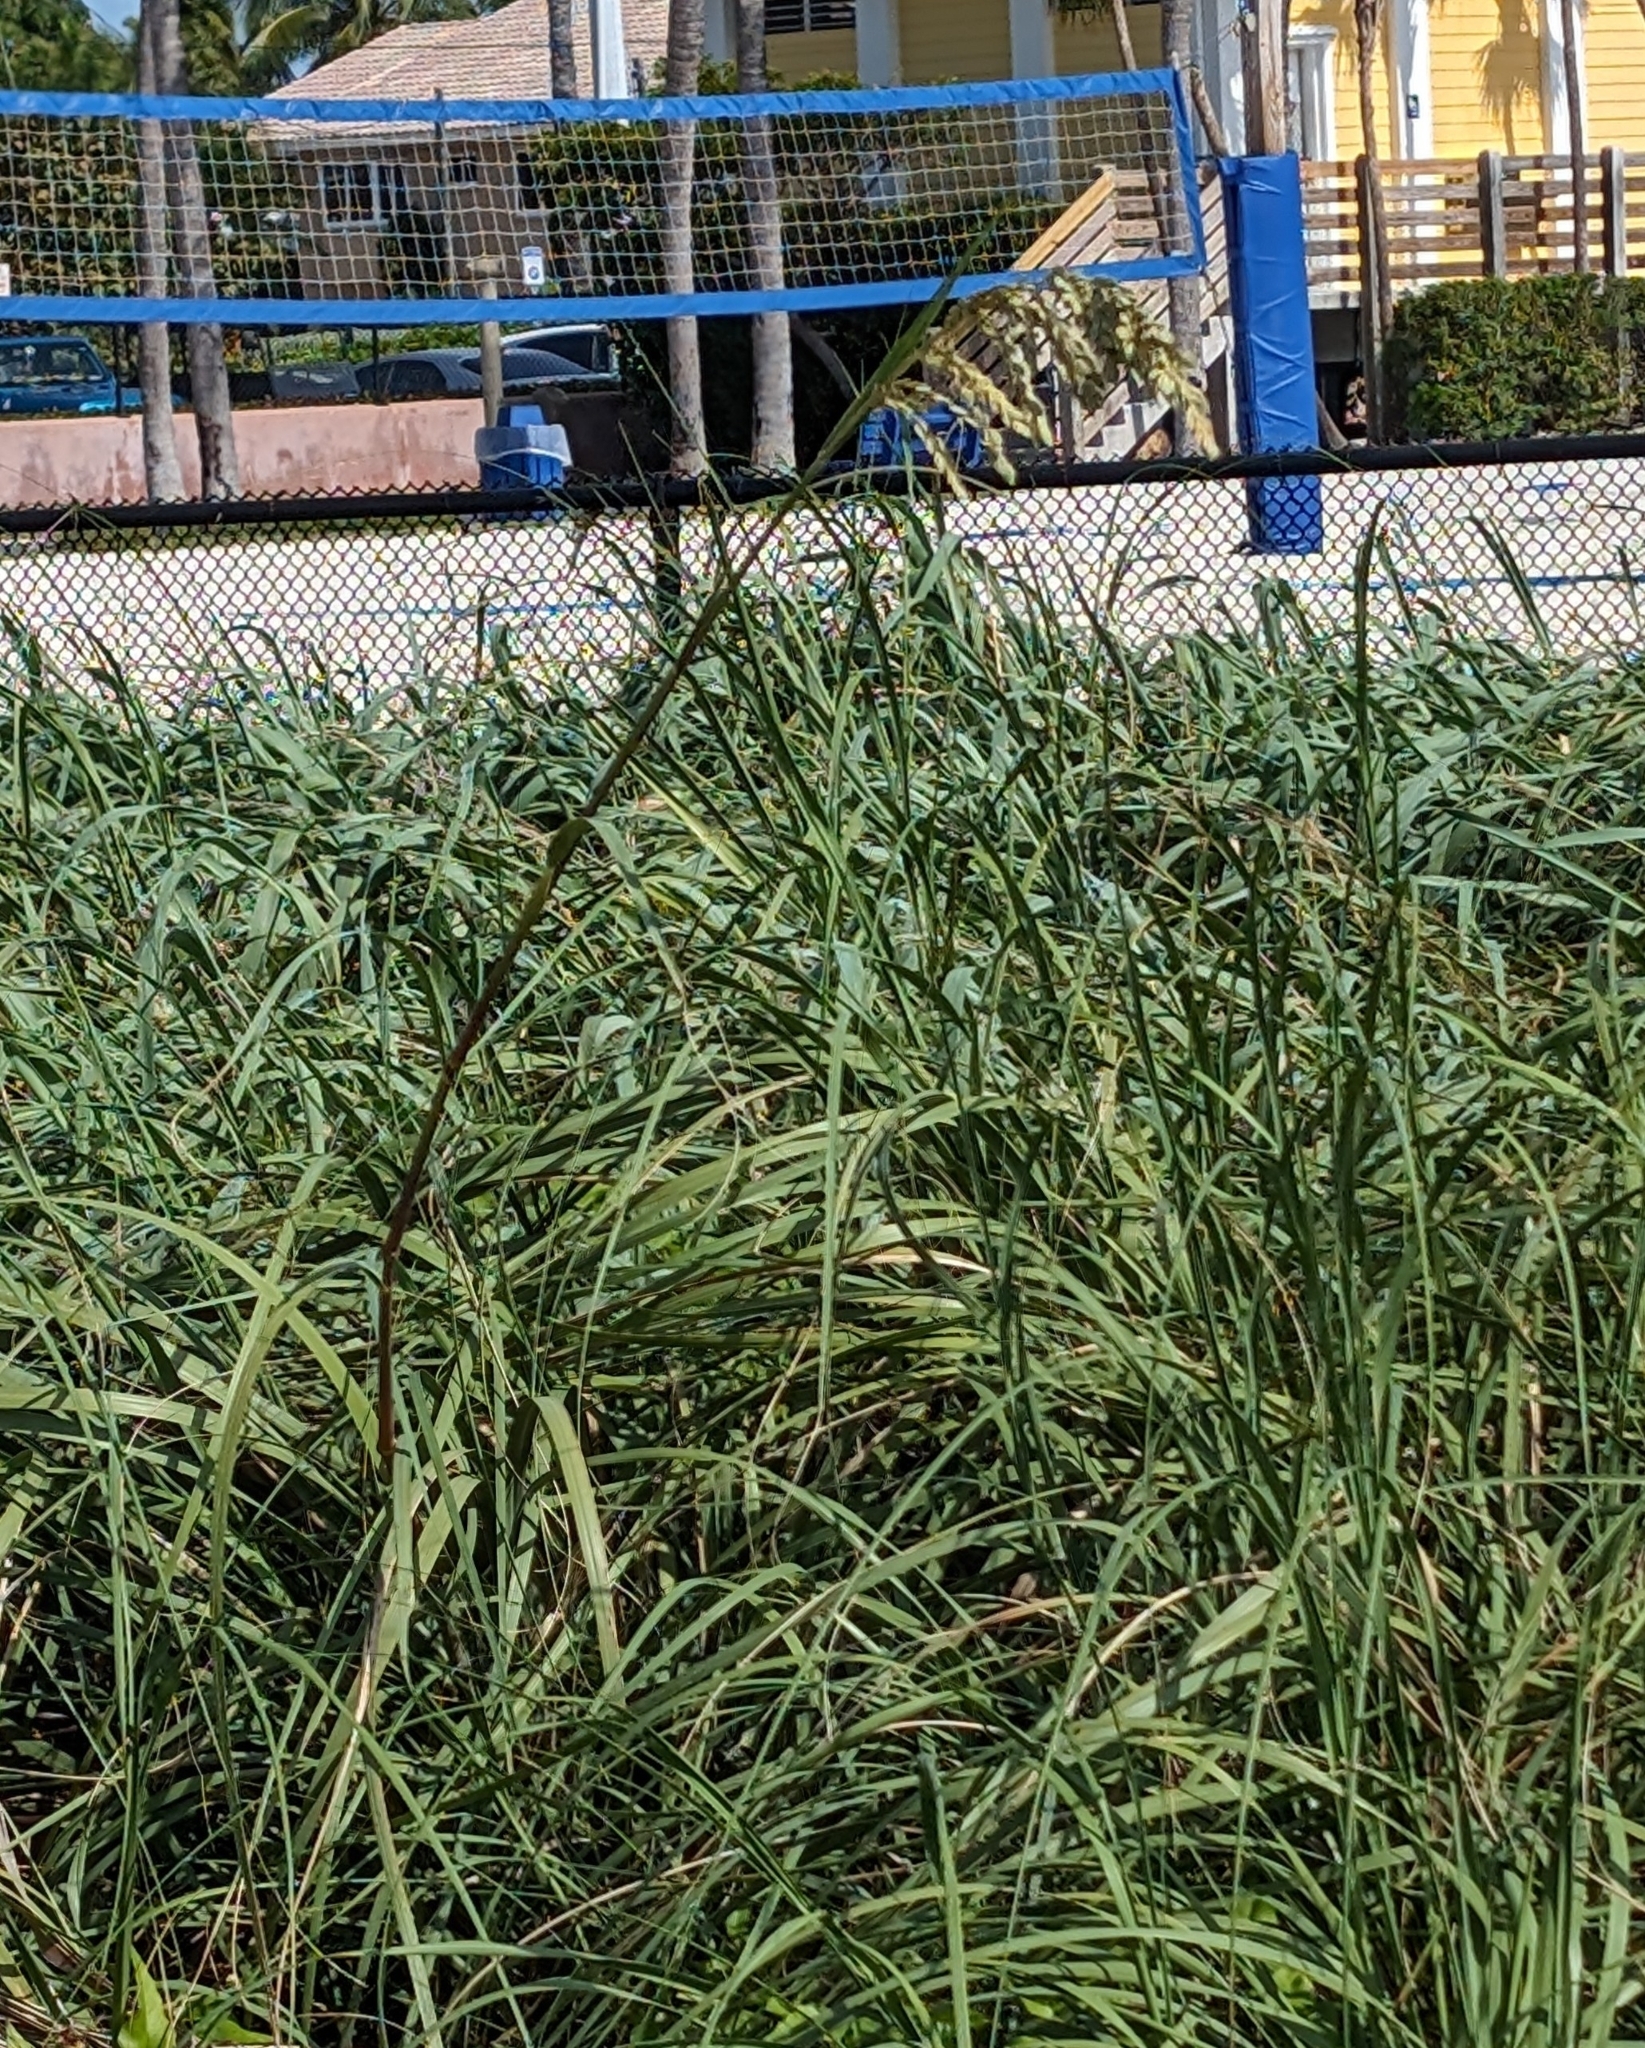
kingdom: Plantae
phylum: Tracheophyta
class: Liliopsida
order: Poales
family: Poaceae
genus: Uniola
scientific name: Uniola paniculata
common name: Seaside-oats
